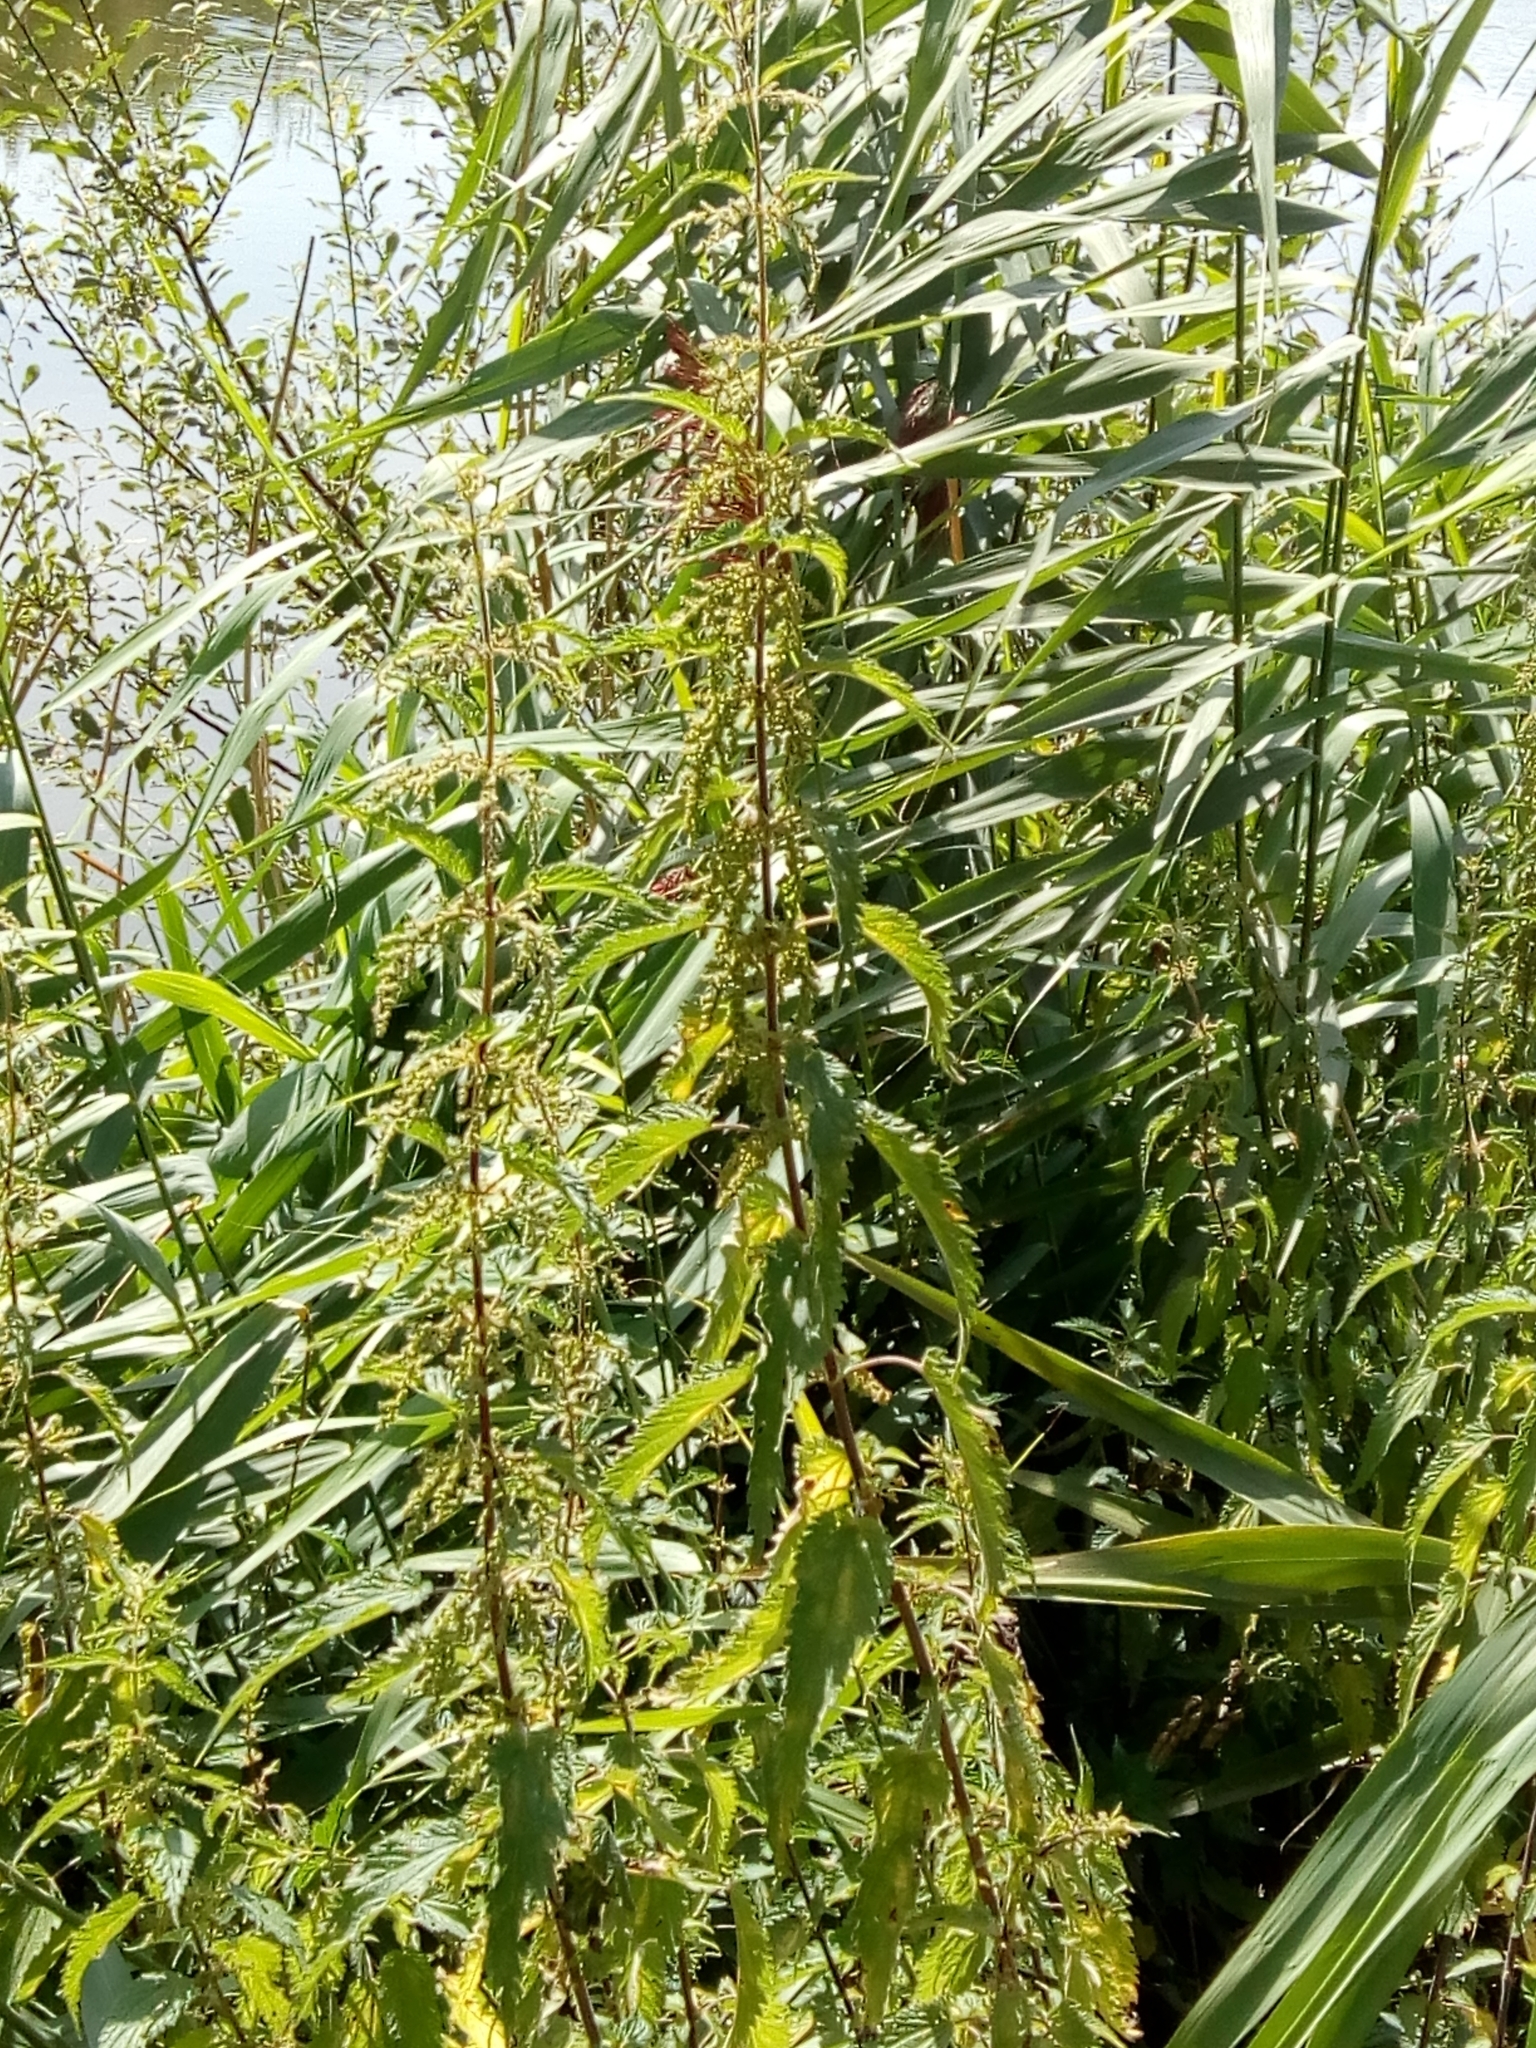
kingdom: Plantae
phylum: Tracheophyta
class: Magnoliopsida
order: Rosales
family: Urticaceae
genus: Urtica
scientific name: Urtica dioica
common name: Common nettle
